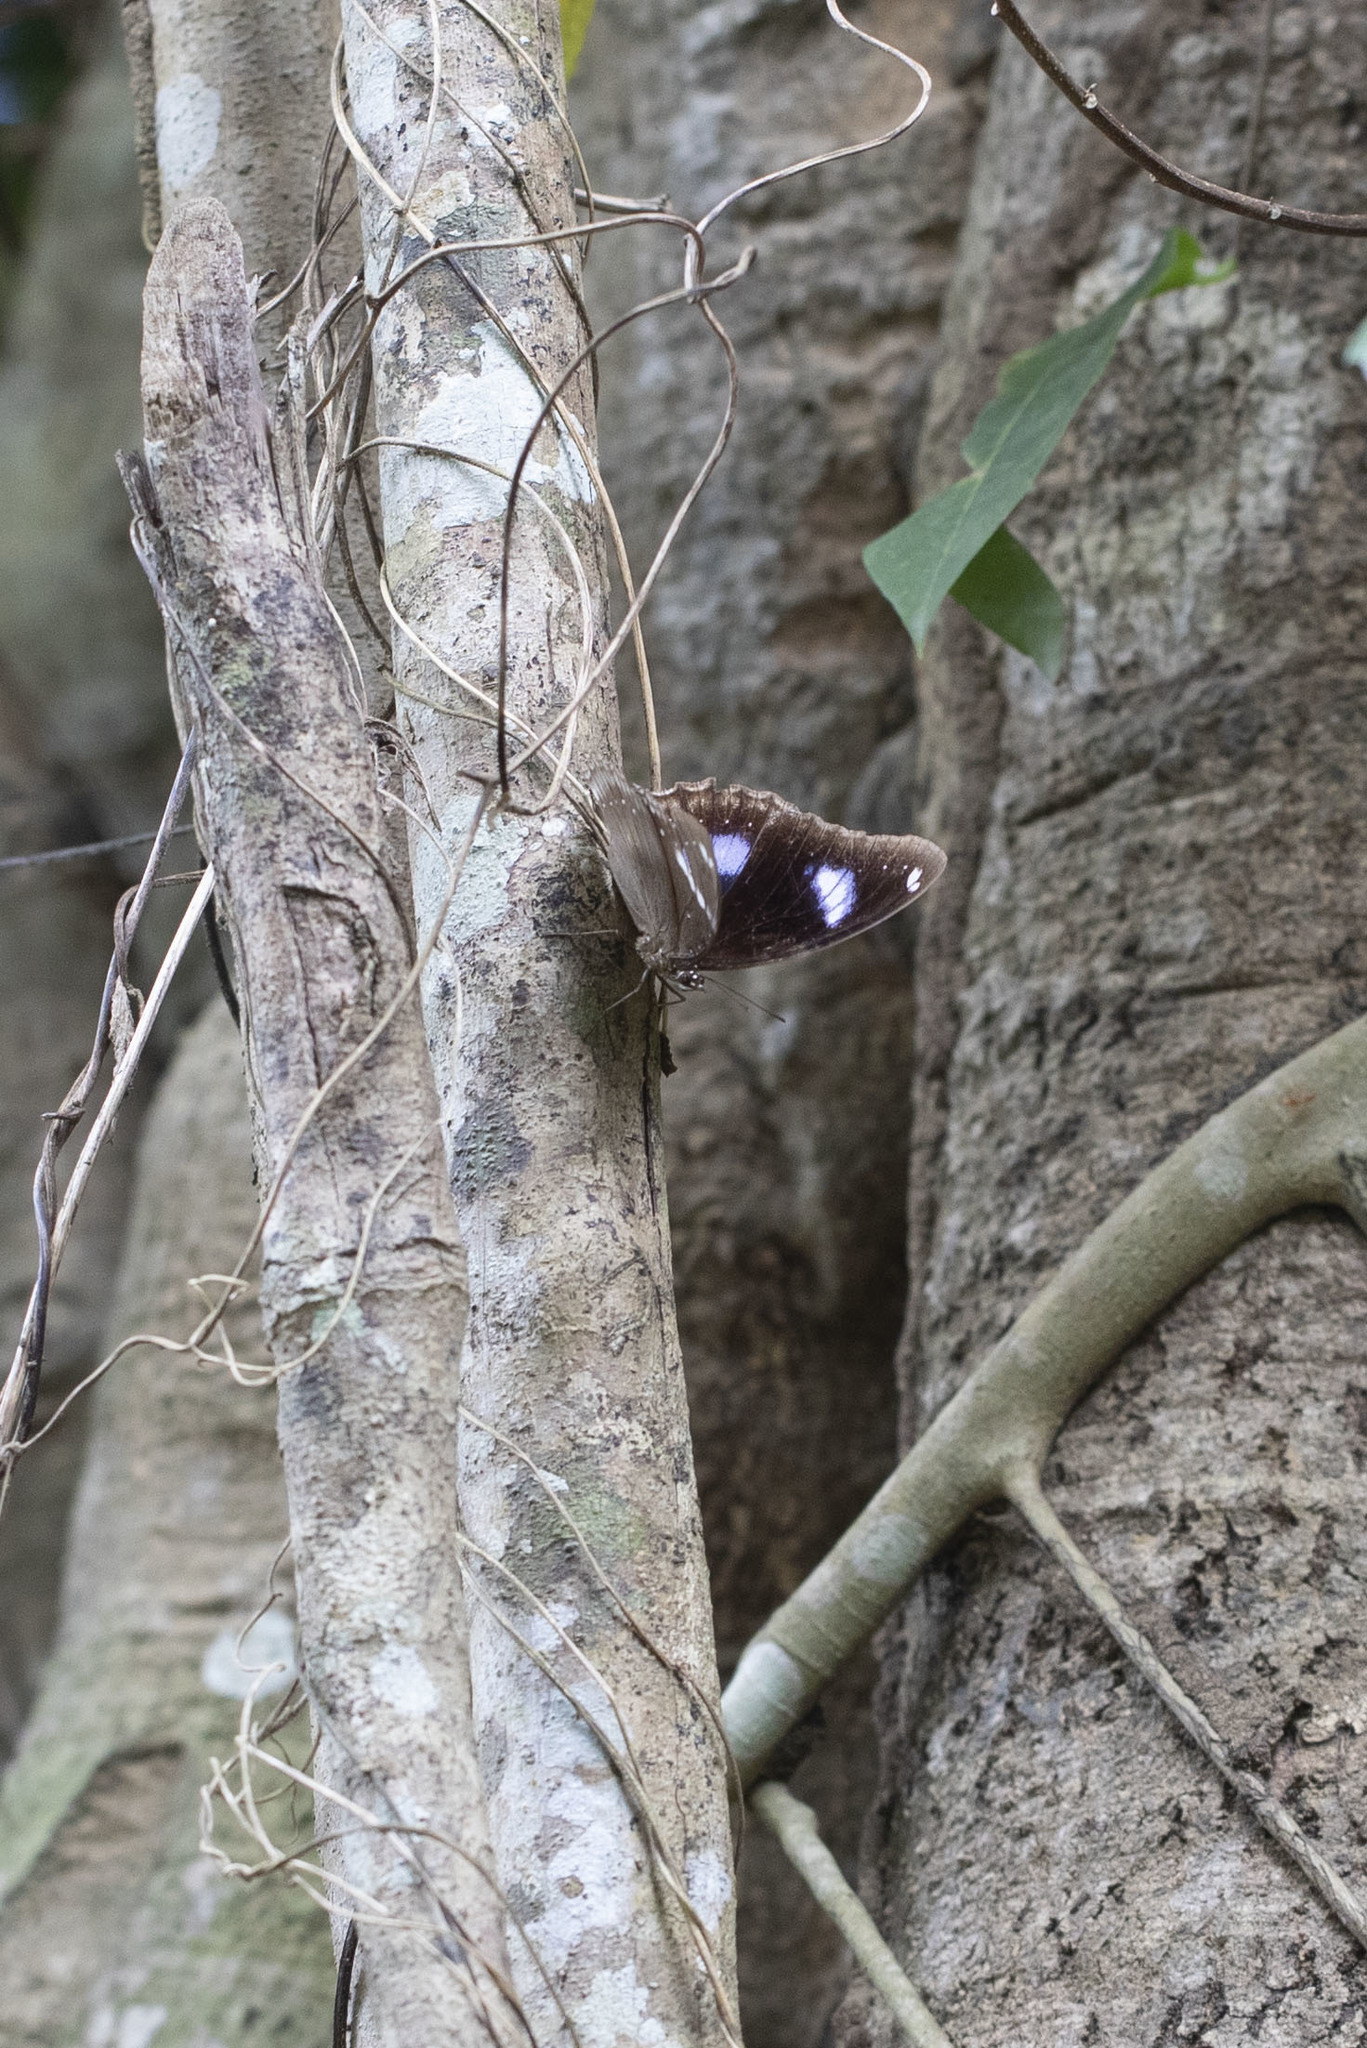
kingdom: Animalia
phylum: Arthropoda
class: Insecta
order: Lepidoptera
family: Nymphalidae
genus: Hypolimnas
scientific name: Hypolimnas bolina
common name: Great eggfly
